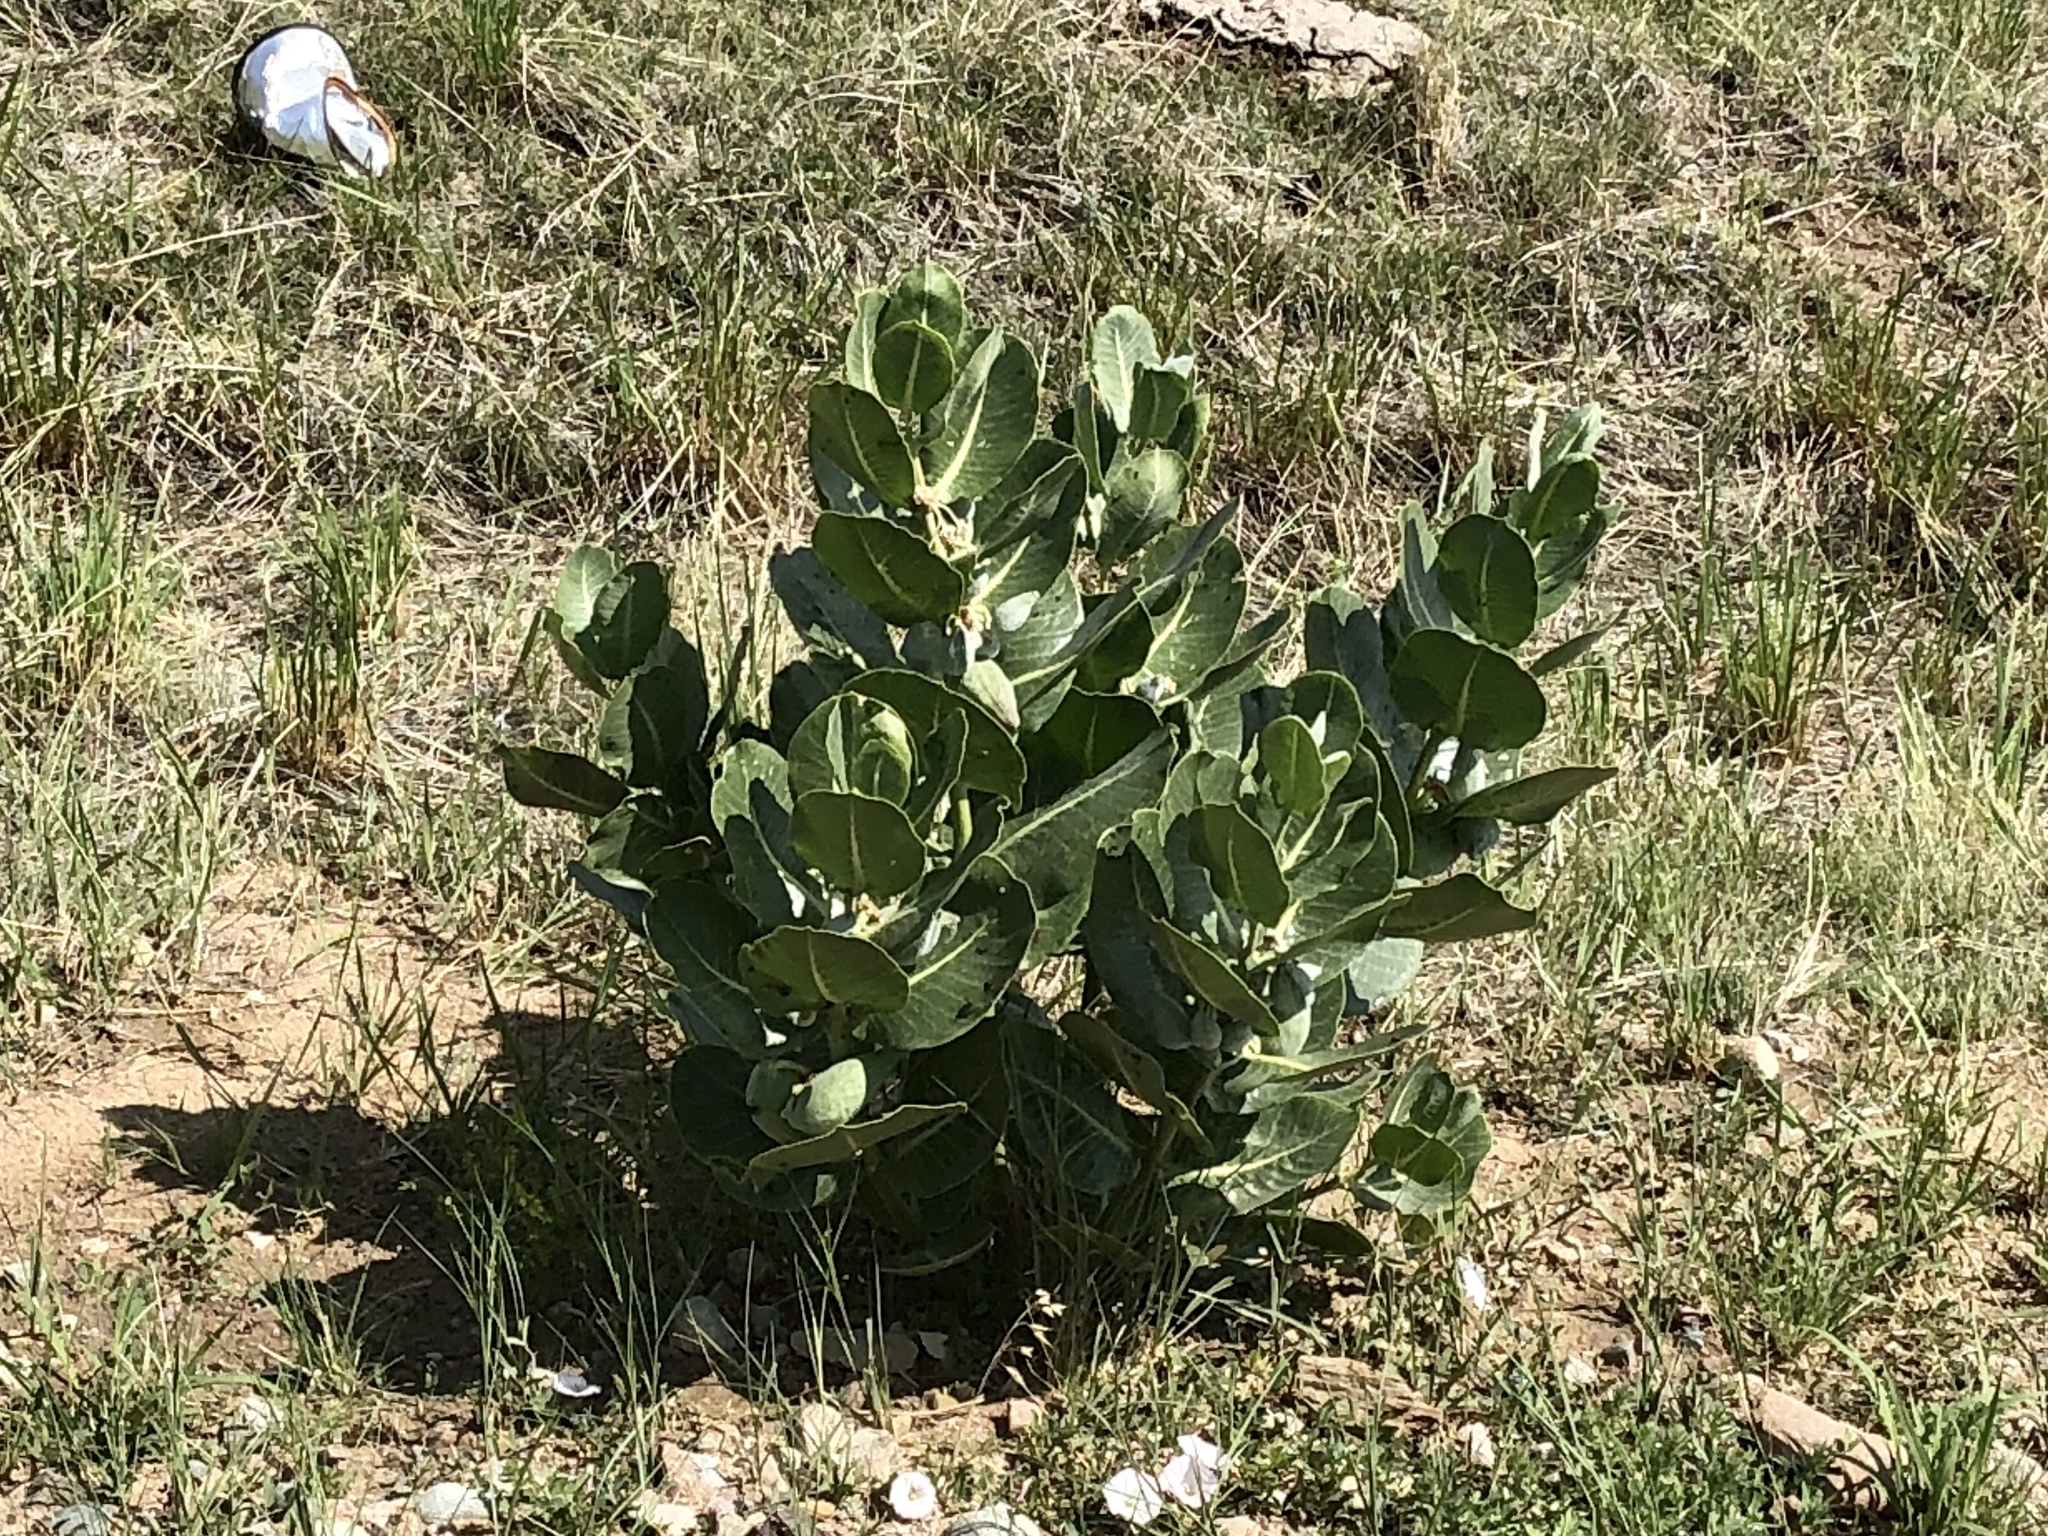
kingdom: Plantae
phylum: Tracheophyta
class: Magnoliopsida
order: Gentianales
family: Apocynaceae
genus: Asclepias
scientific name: Asclepias latifolia
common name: Broadleaf milkweed
